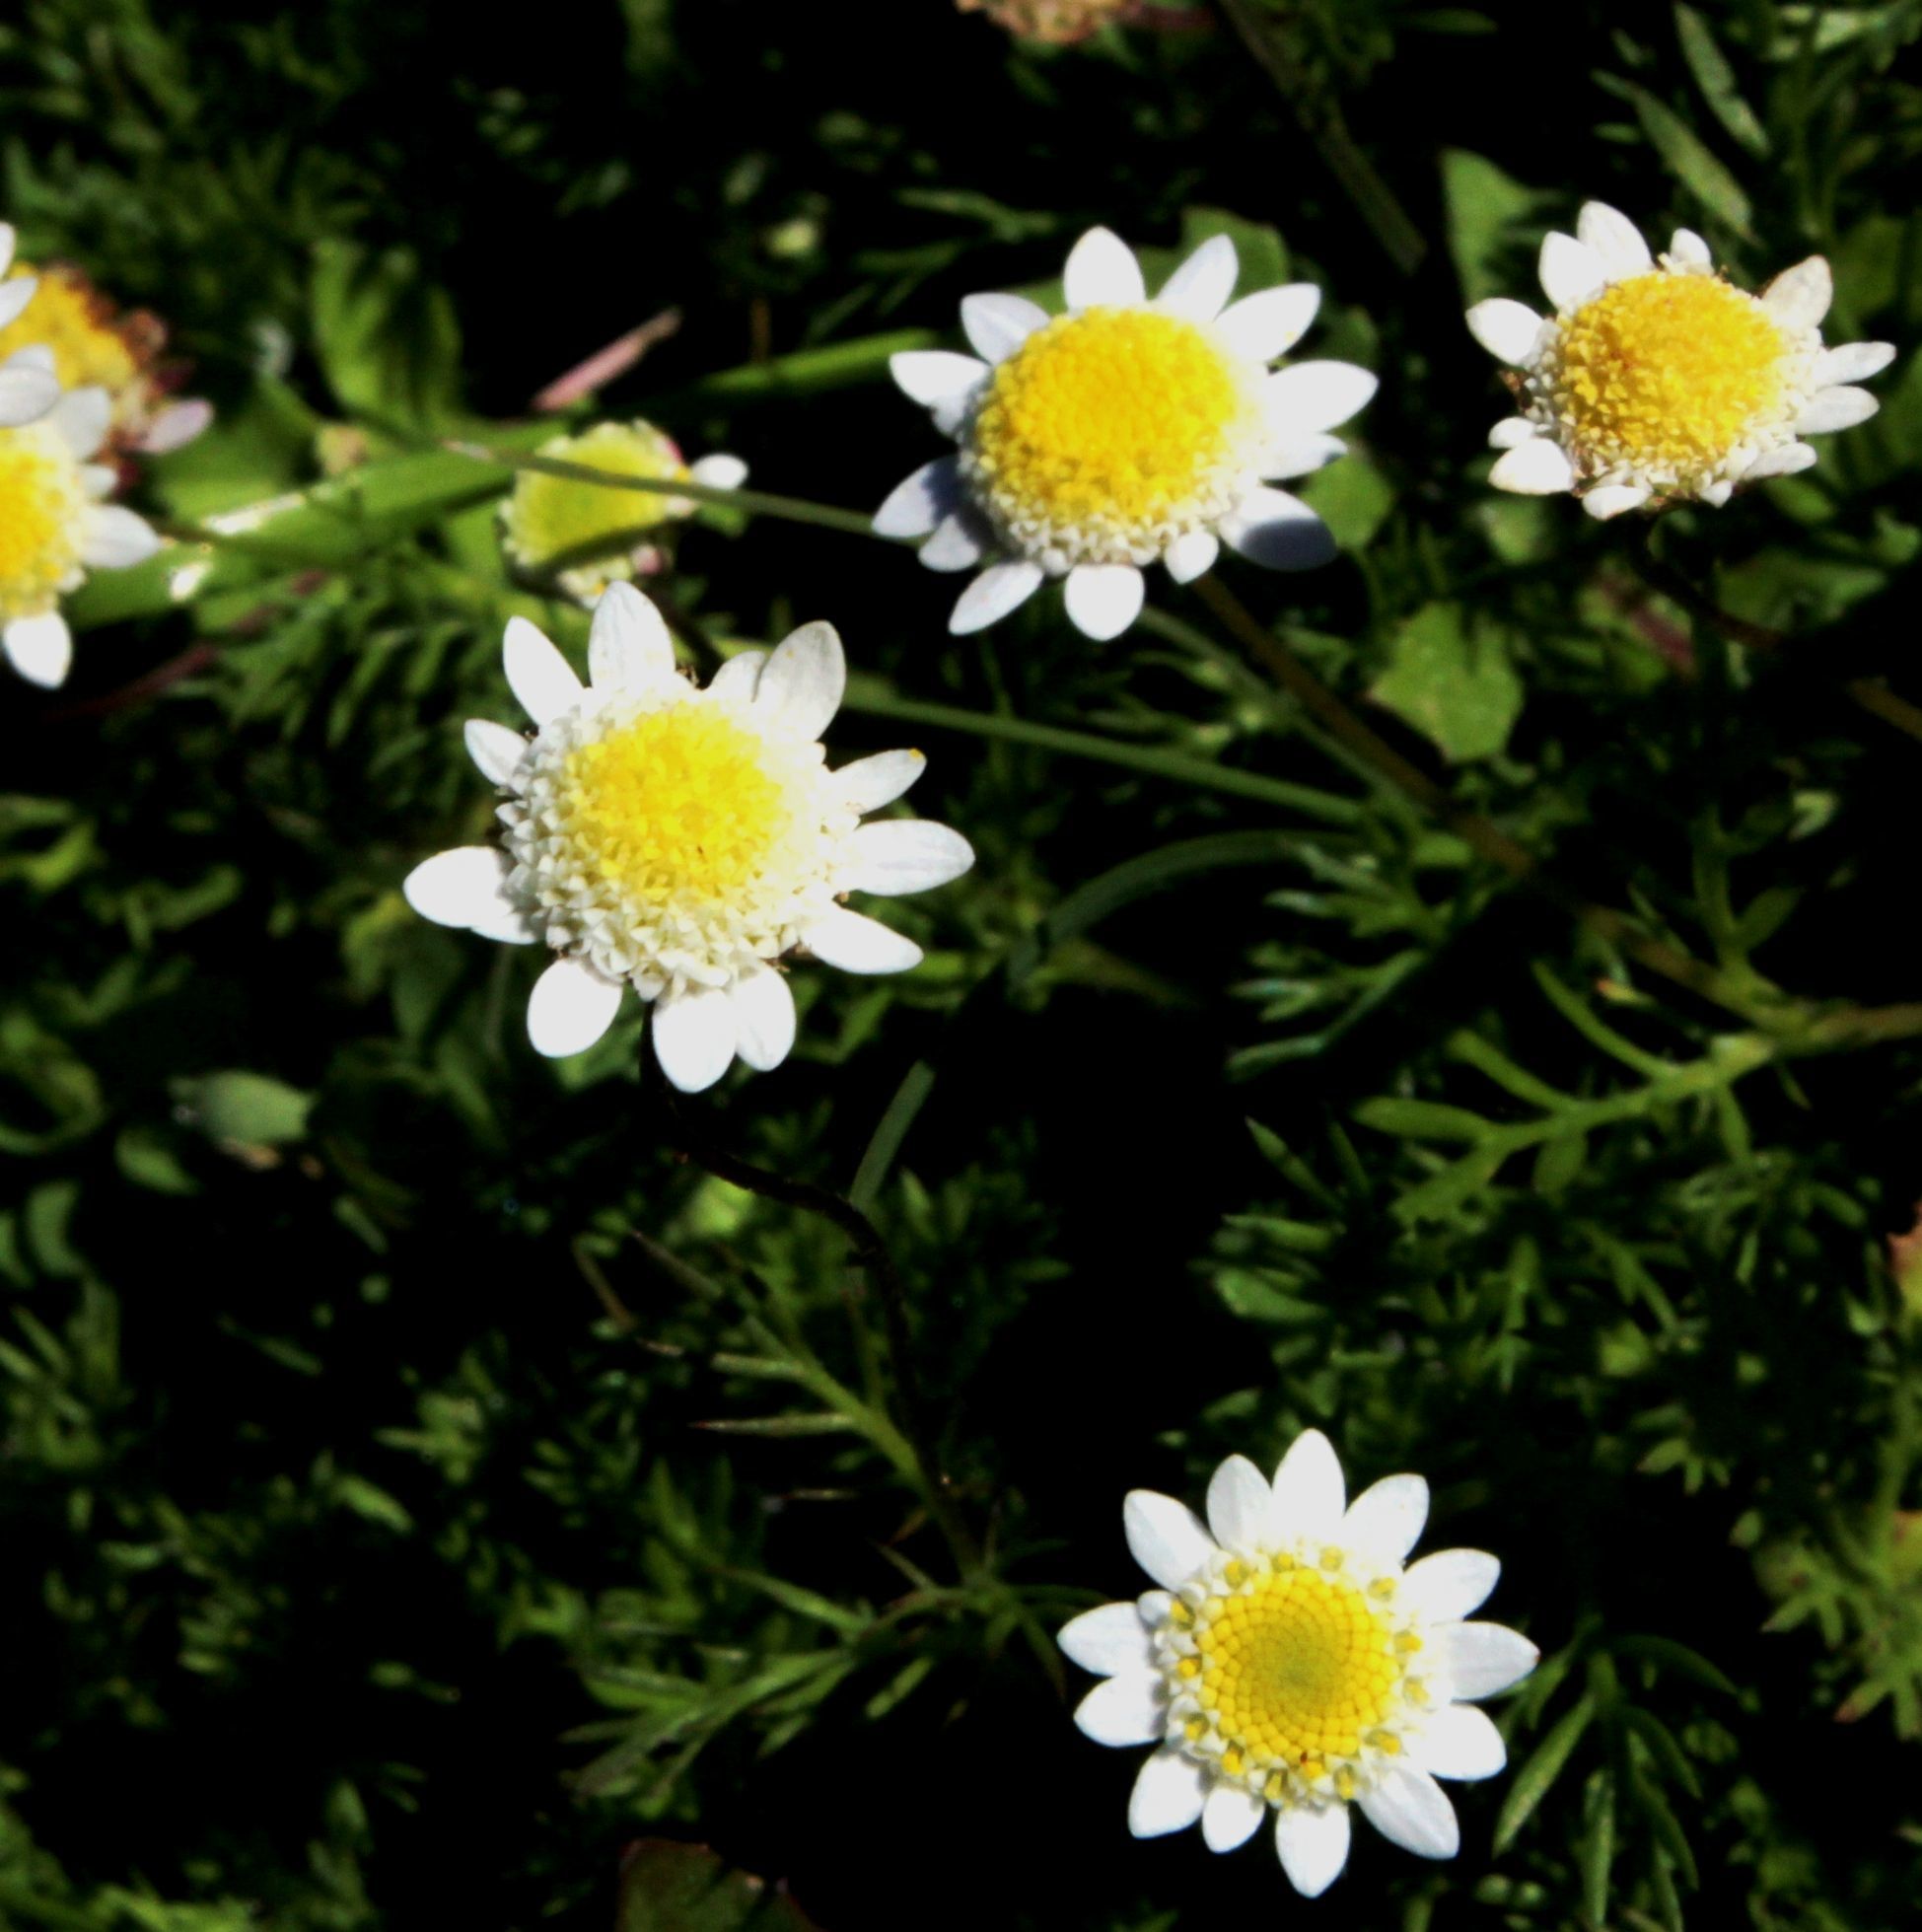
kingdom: Plantae
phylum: Tracheophyta
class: Magnoliopsida
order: Asterales
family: Asteraceae
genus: Cotula
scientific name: Cotula turbinata
